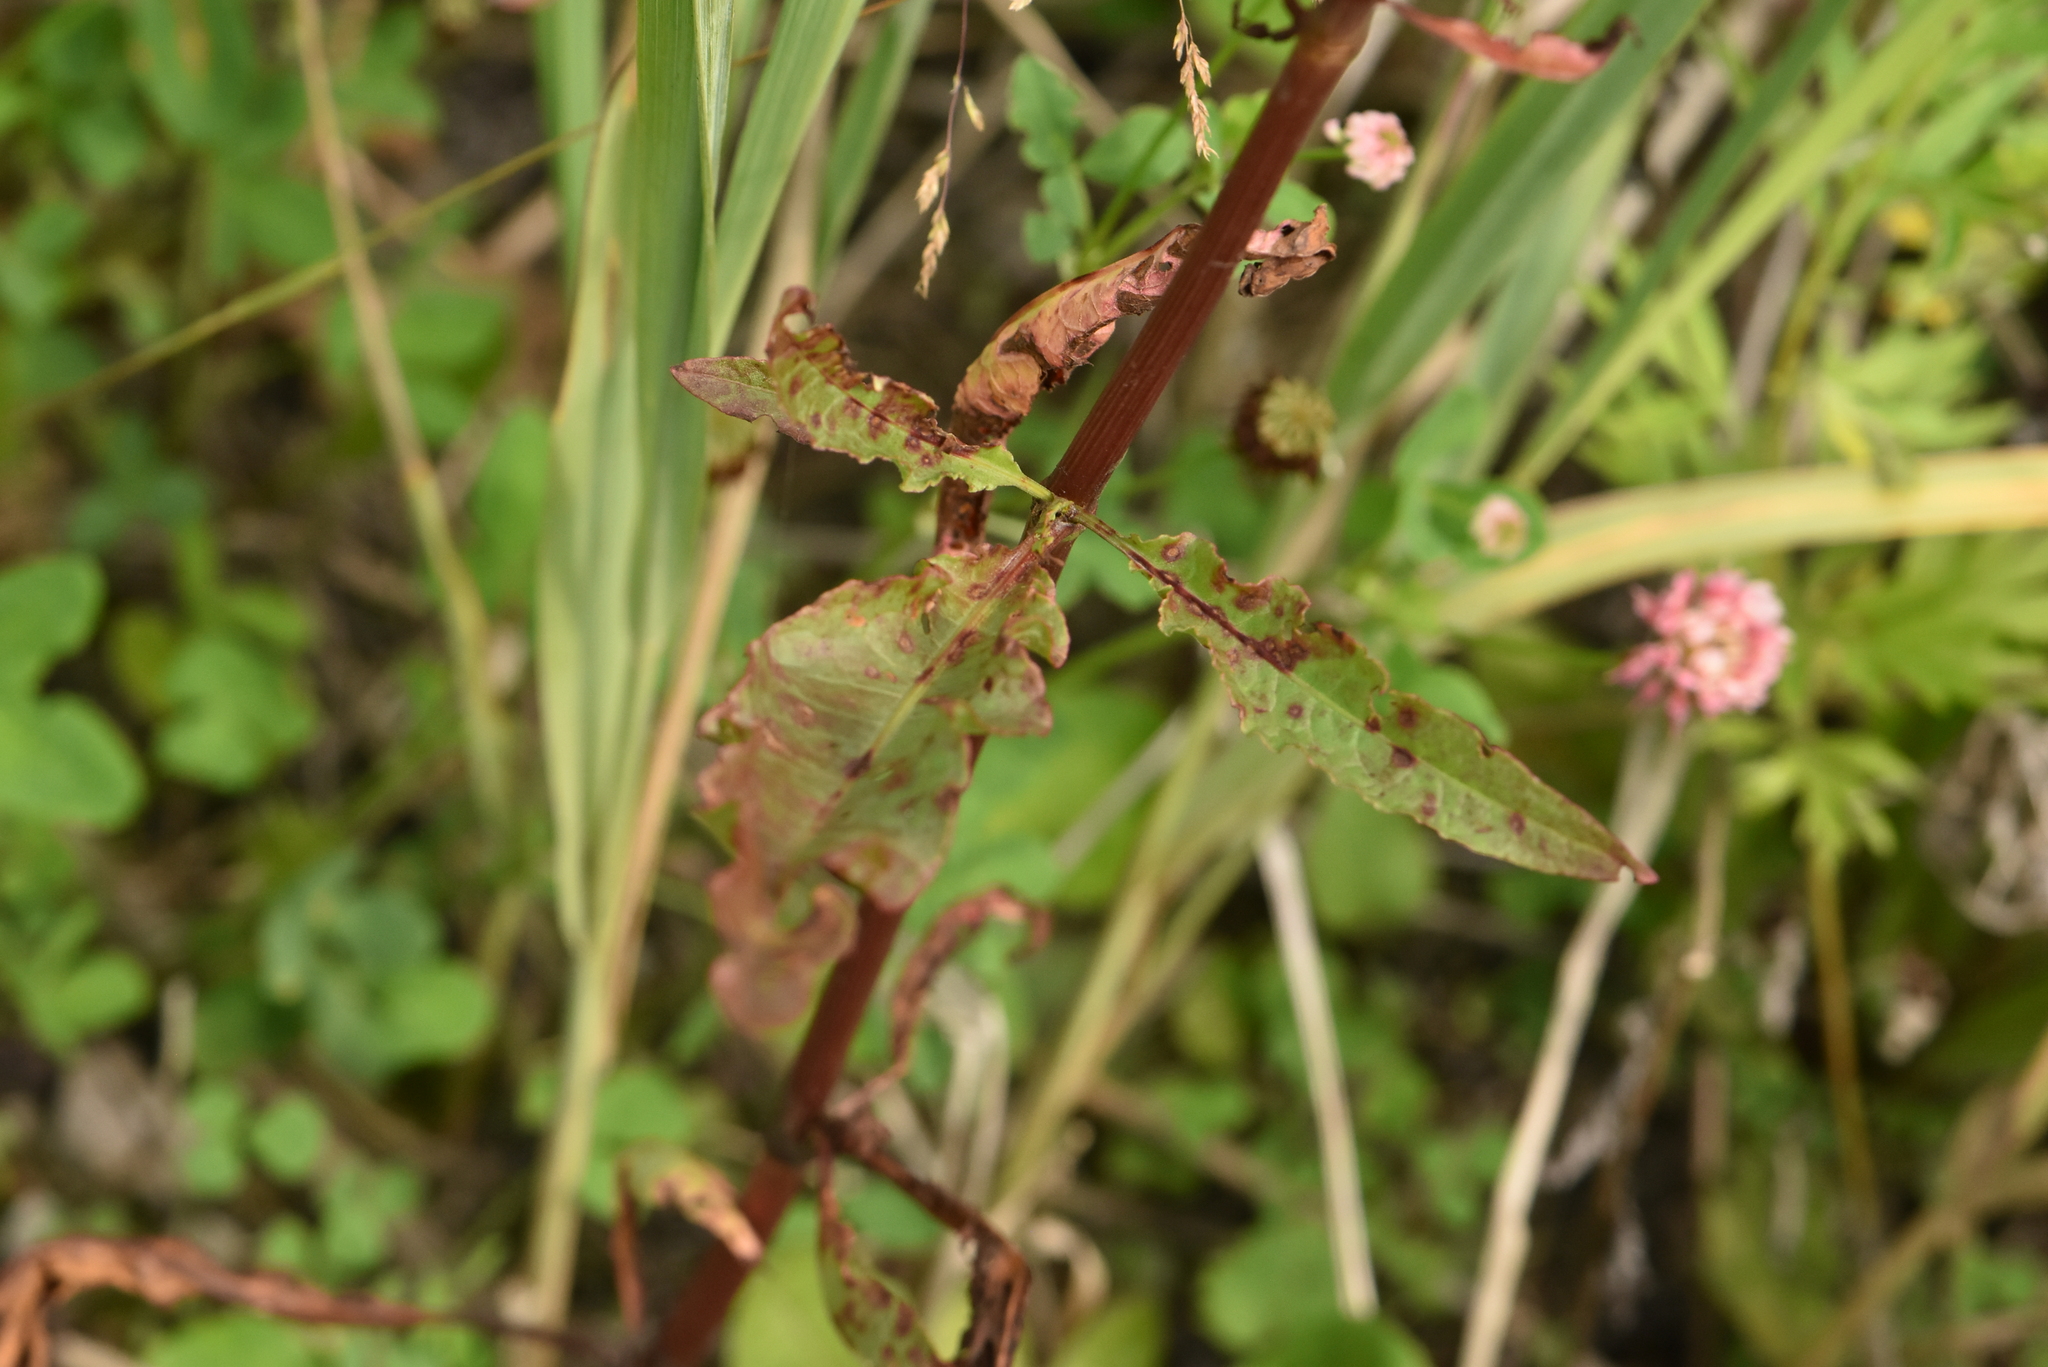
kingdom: Plantae
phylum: Tracheophyta
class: Magnoliopsida
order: Caryophyllales
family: Polygonaceae
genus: Rumex
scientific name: Rumex pseudonatronatus
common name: Field dock
